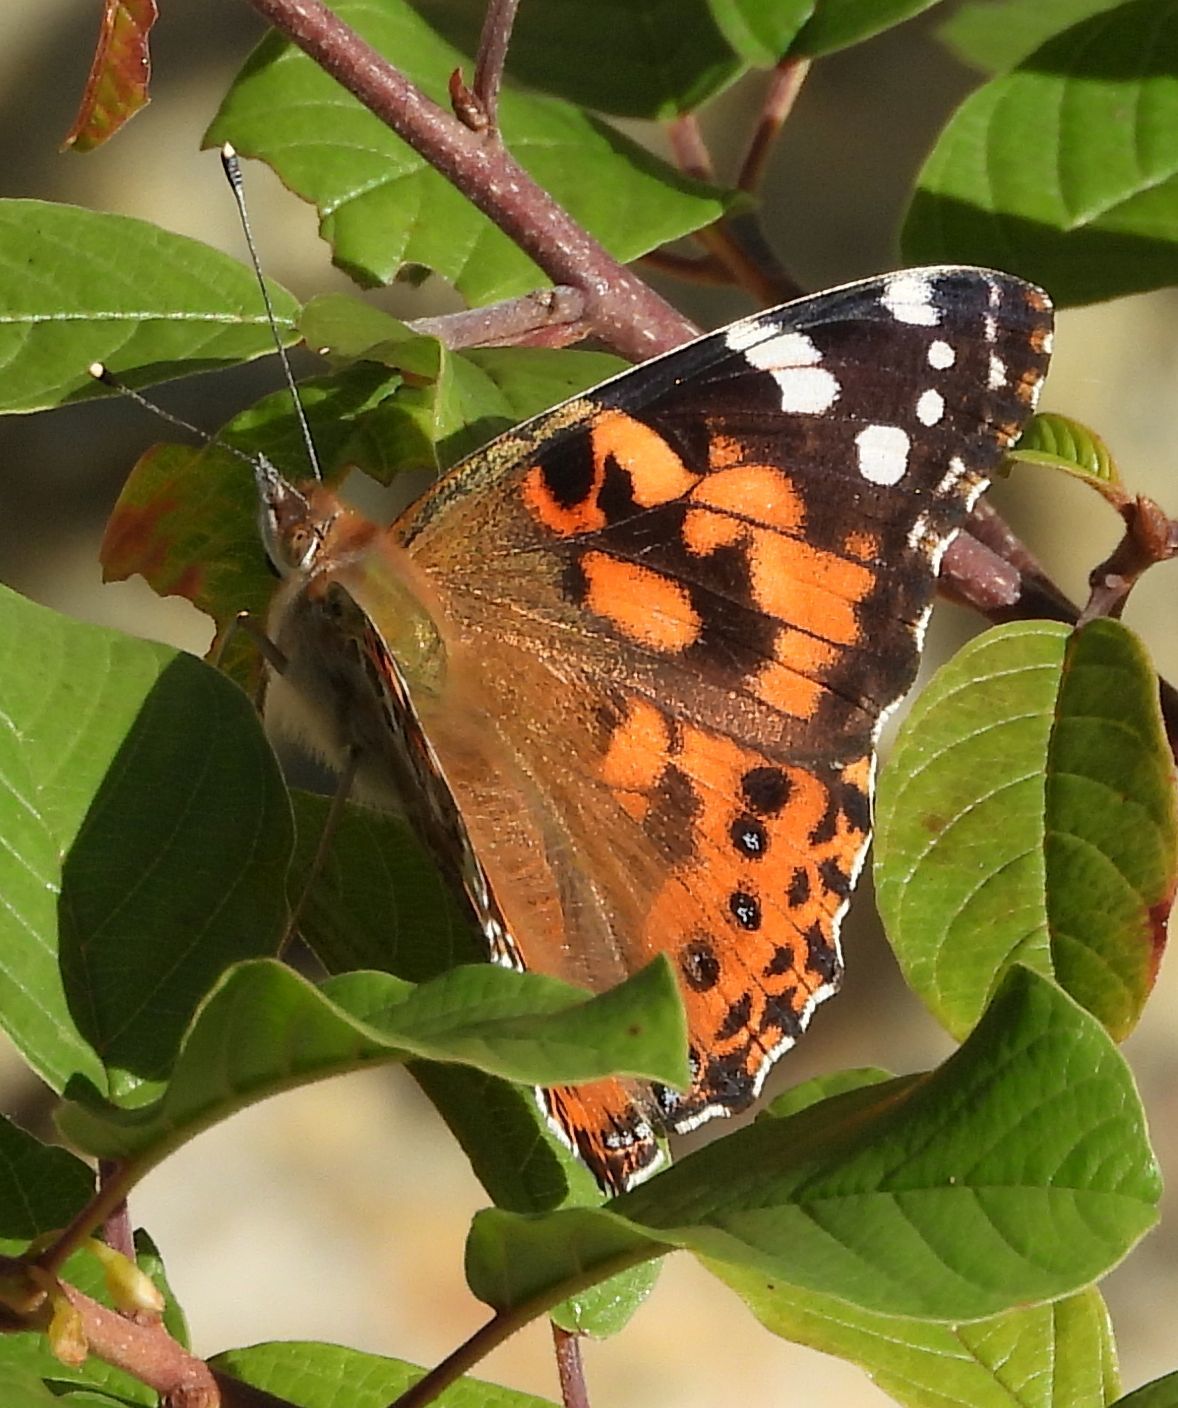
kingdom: Animalia
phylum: Arthropoda
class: Insecta
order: Lepidoptera
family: Nymphalidae
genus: Vanessa
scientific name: Vanessa cardui
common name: Painted lady
